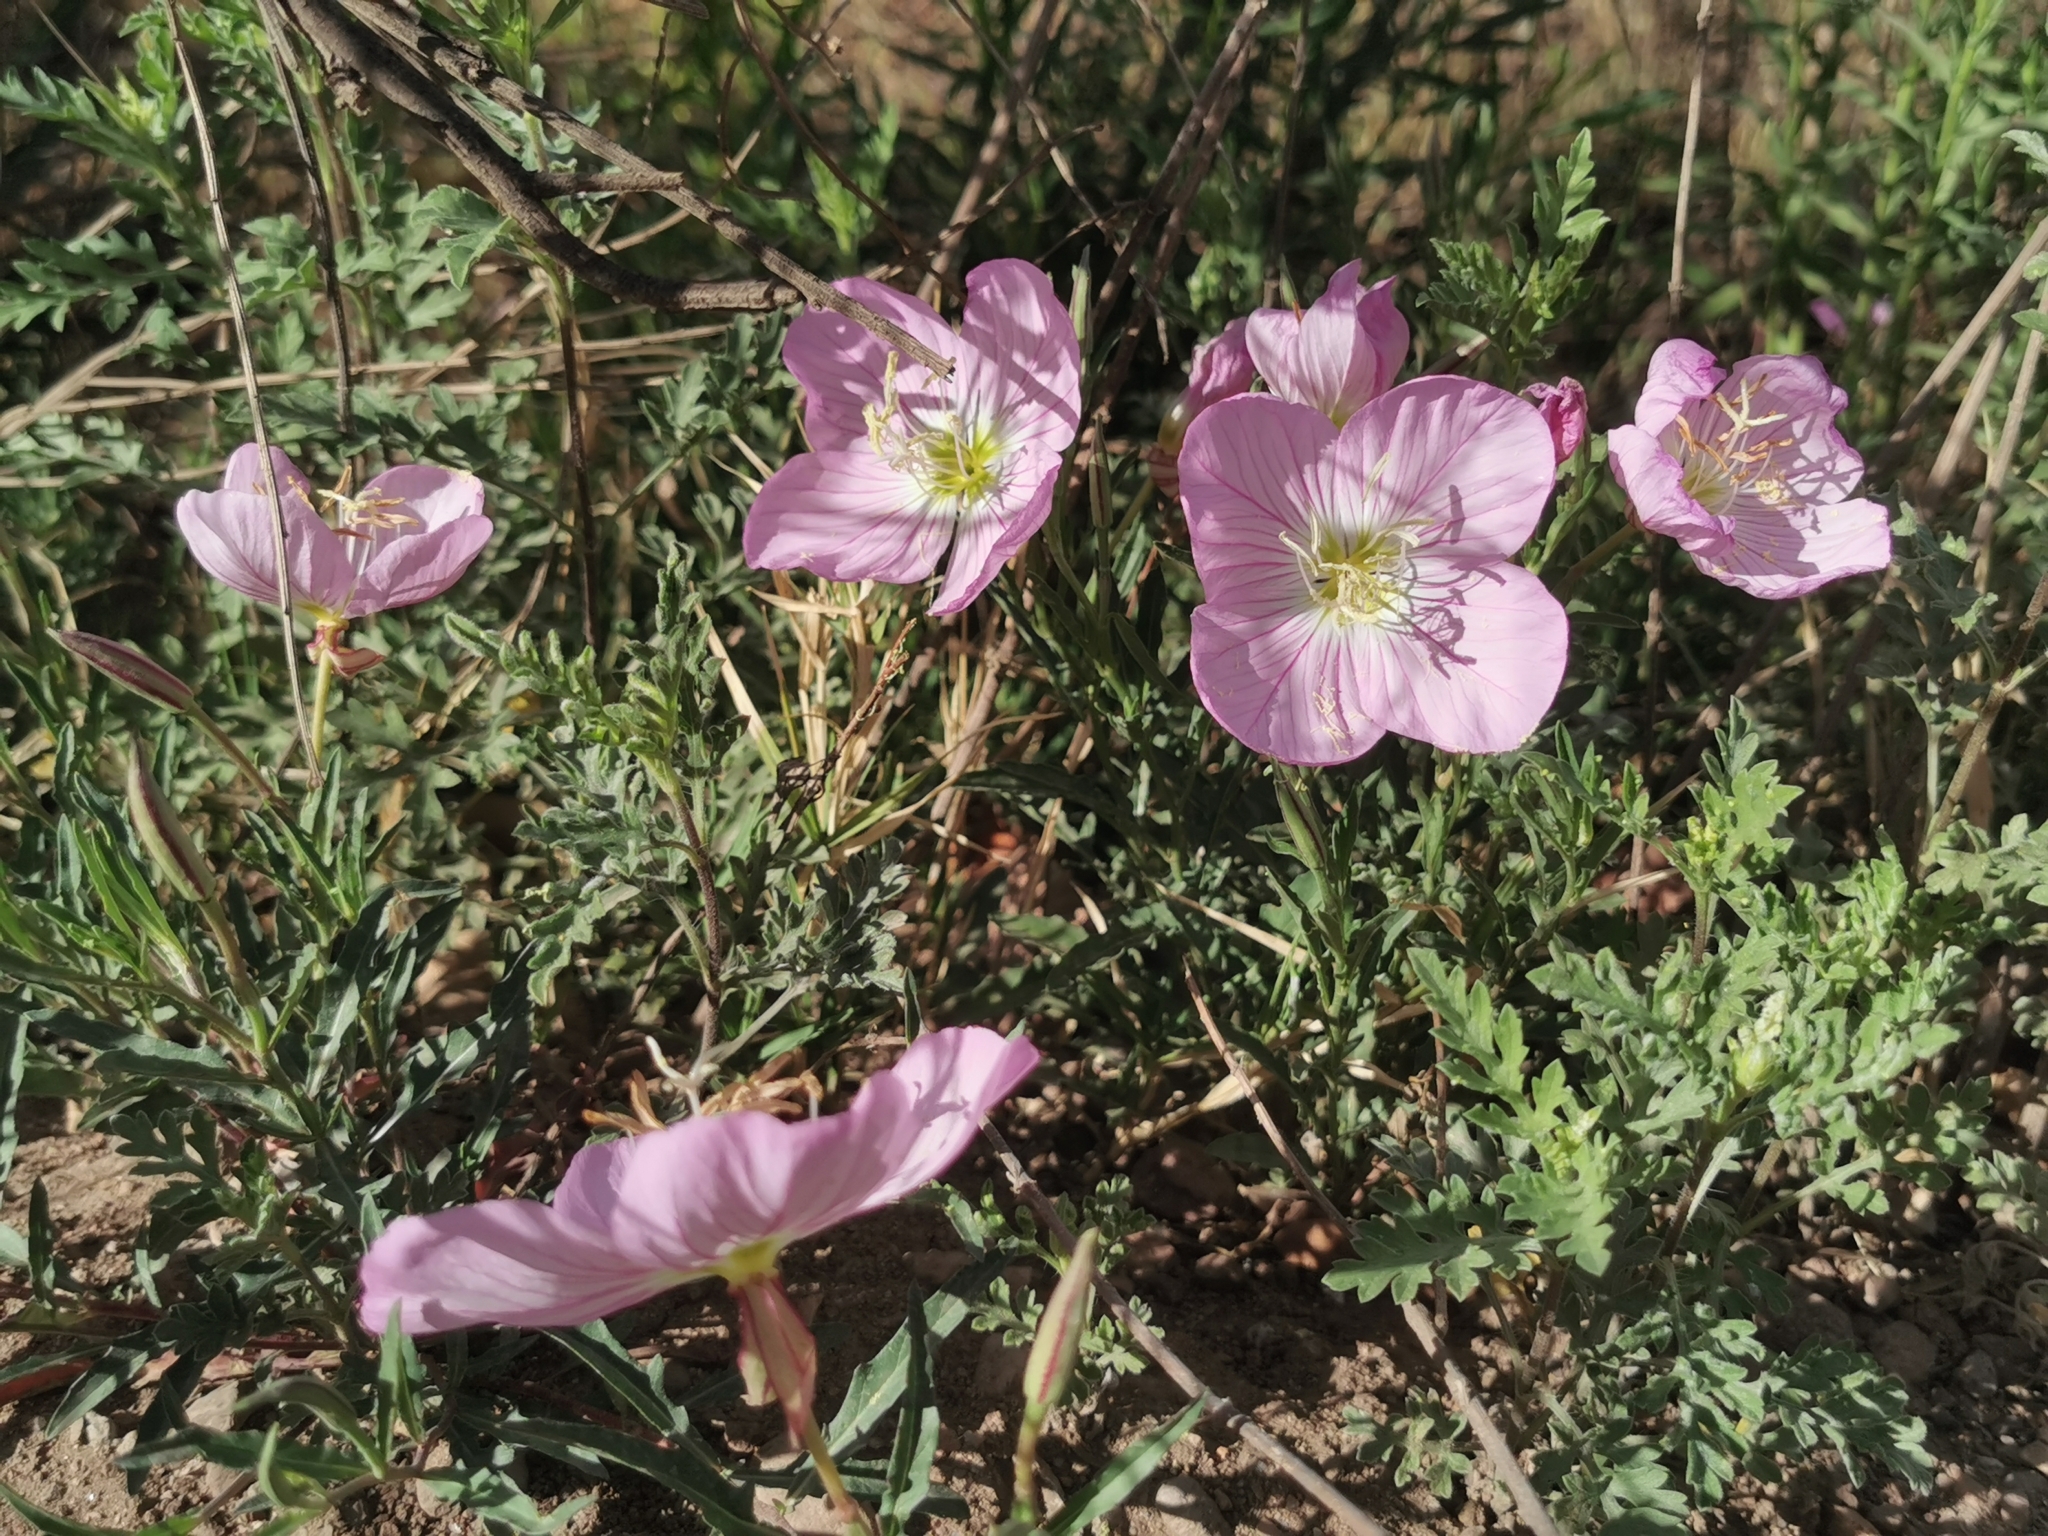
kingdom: Plantae
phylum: Tracheophyta
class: Magnoliopsida
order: Myrtales
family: Onagraceae
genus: Oenothera
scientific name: Oenothera speciosa
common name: White evening-primrose
